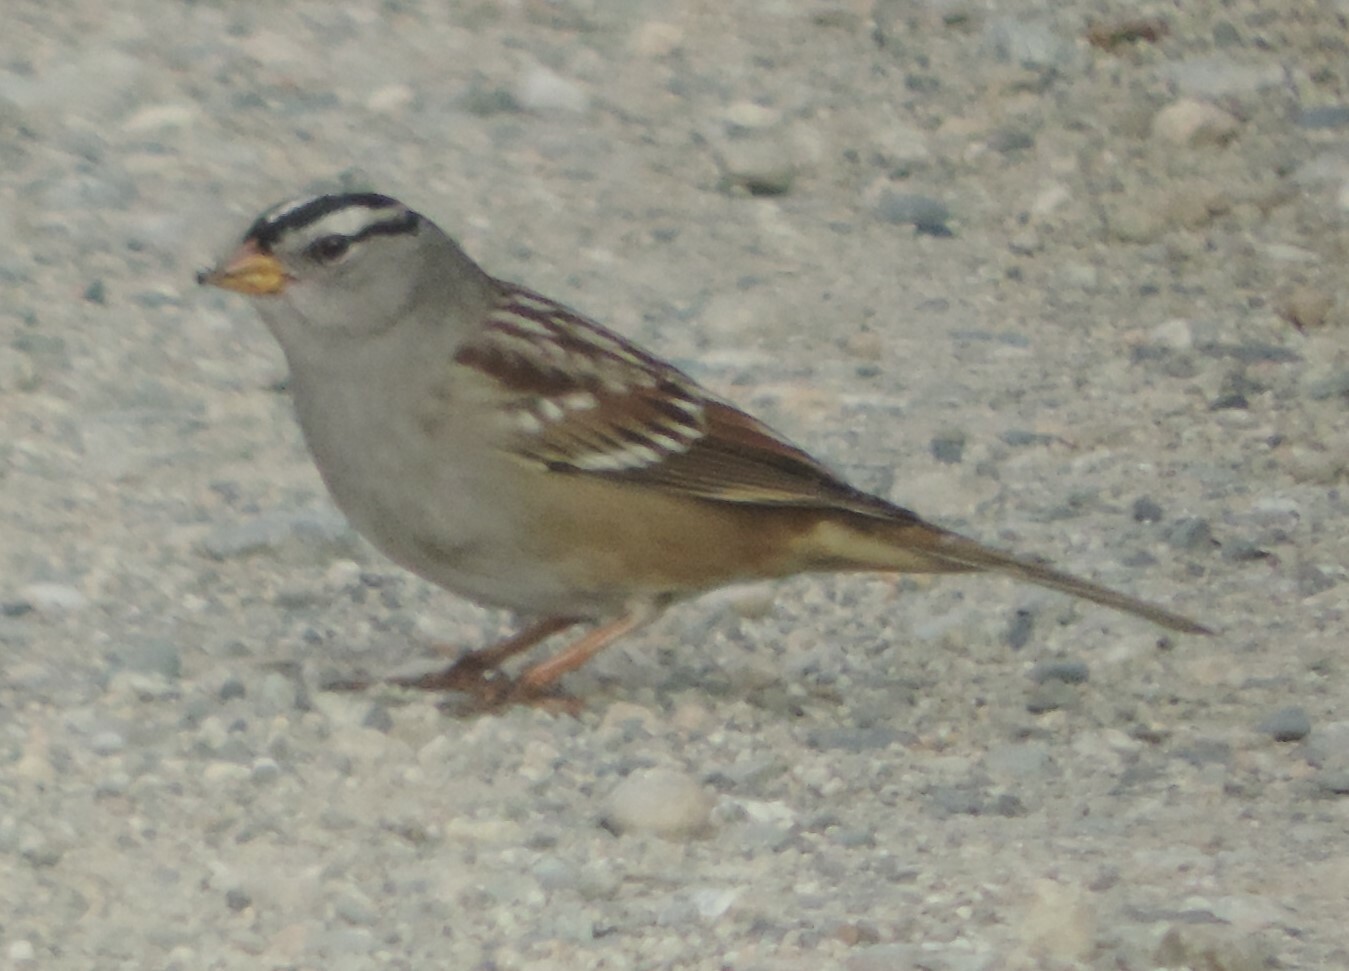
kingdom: Animalia
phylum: Chordata
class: Aves
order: Passeriformes
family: Passerellidae
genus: Zonotrichia
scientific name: Zonotrichia leucophrys
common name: White-crowned sparrow
